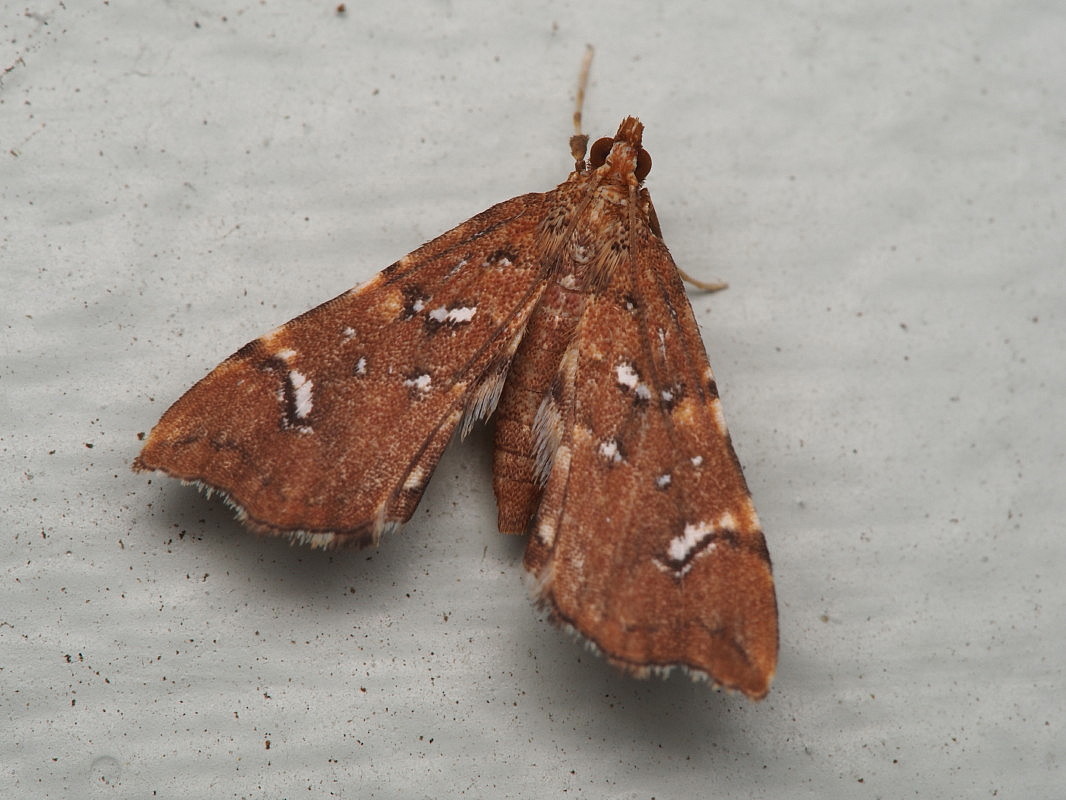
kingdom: Animalia
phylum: Arthropoda
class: Insecta
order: Lepidoptera
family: Pyralidae
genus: Musotima
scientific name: Musotima nitidalis
